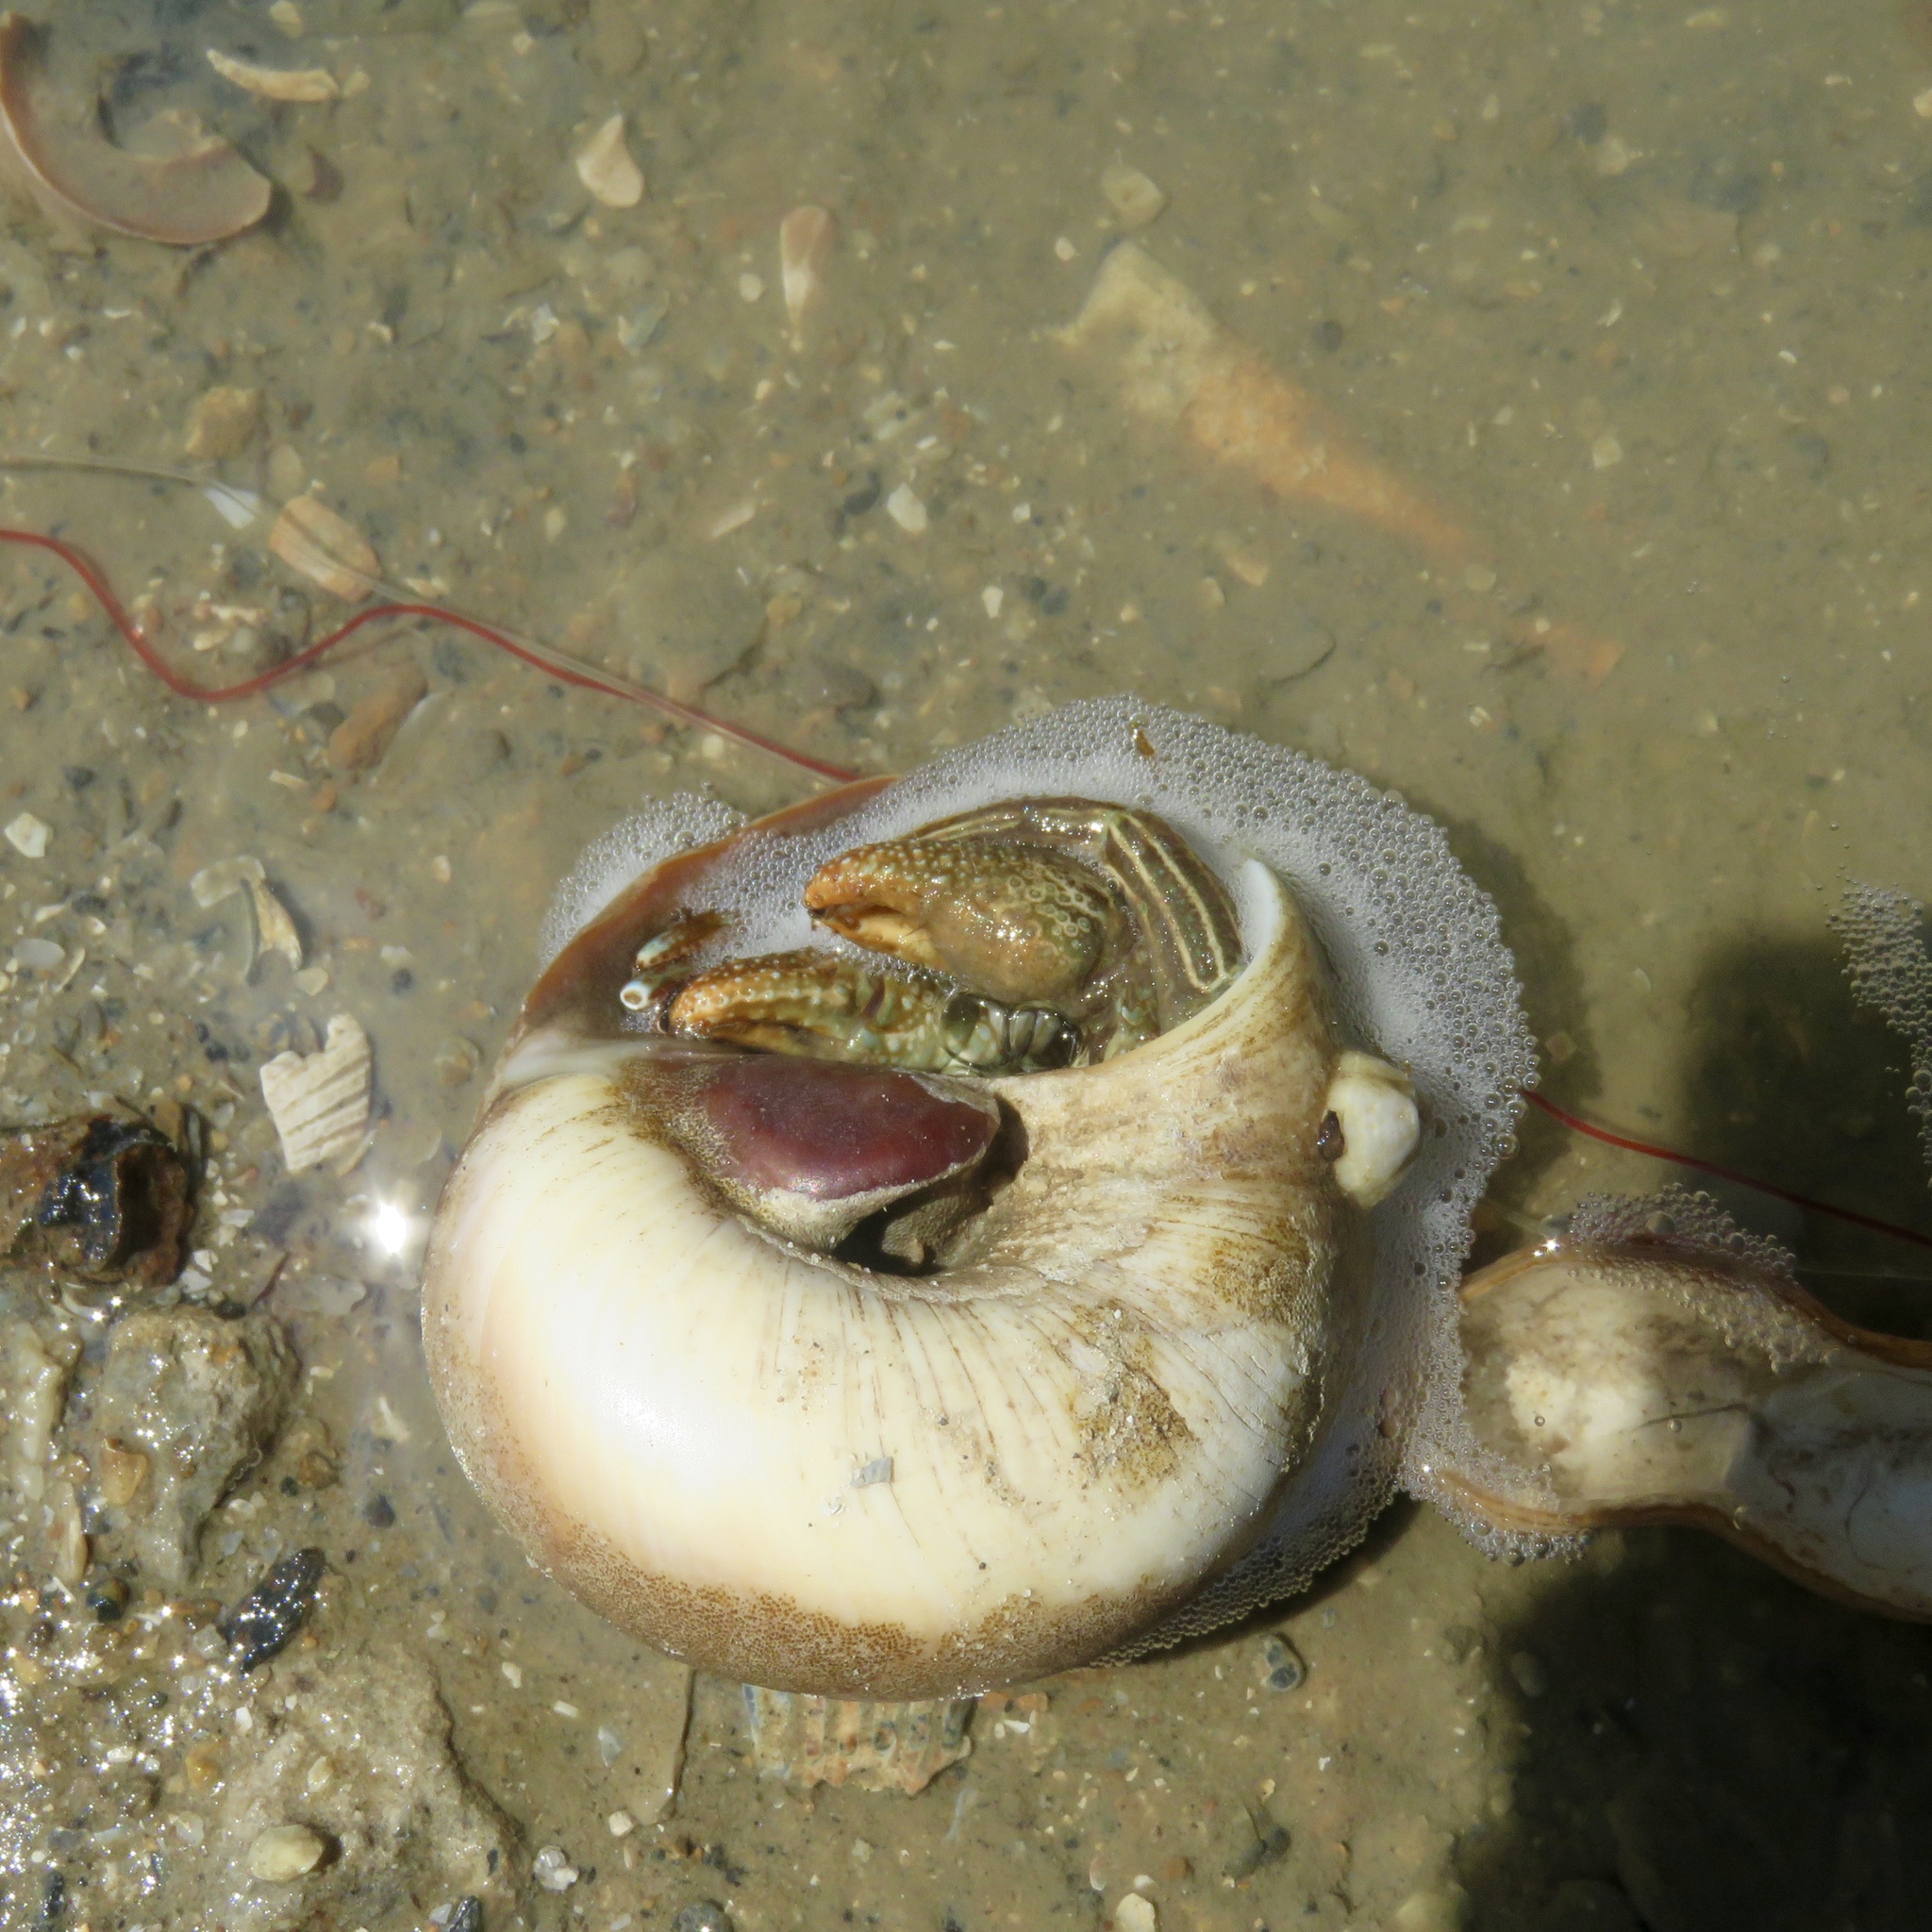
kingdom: Animalia
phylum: Arthropoda
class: Malacostraca
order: Decapoda
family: Diogenidae
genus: Clibanarius
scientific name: Clibanarius vittatus
